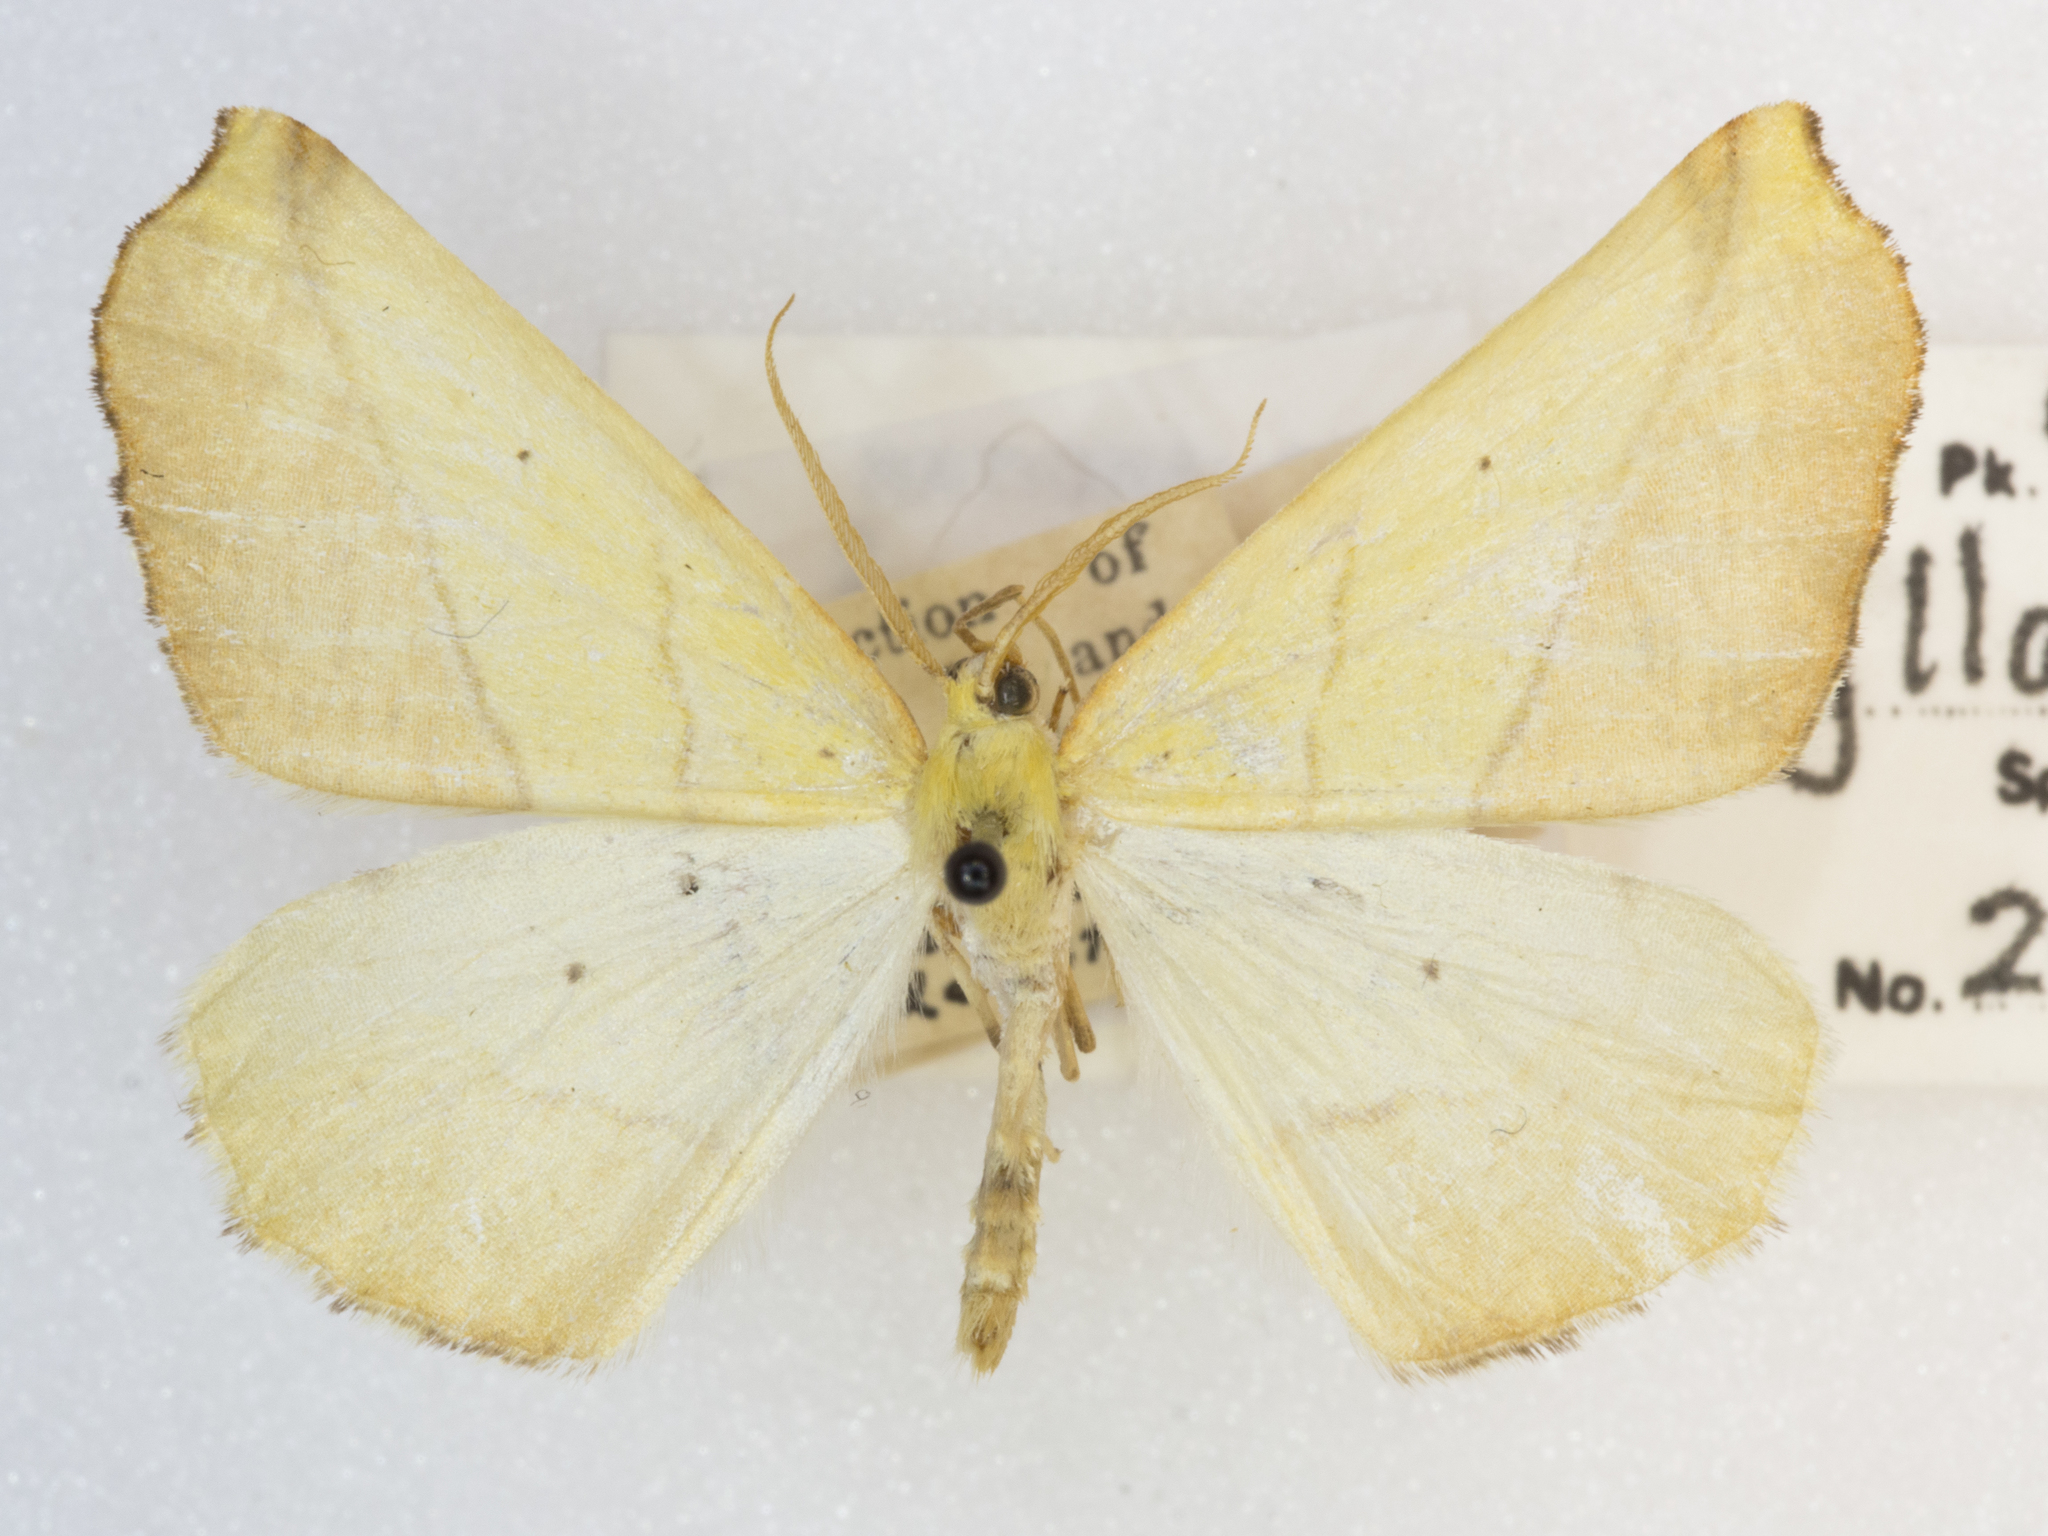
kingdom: Animalia
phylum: Arthropoda
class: Insecta
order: Lepidoptera
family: Geometridae
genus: Sicya
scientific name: Sicya macularia
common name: Sharp-lined yellow
